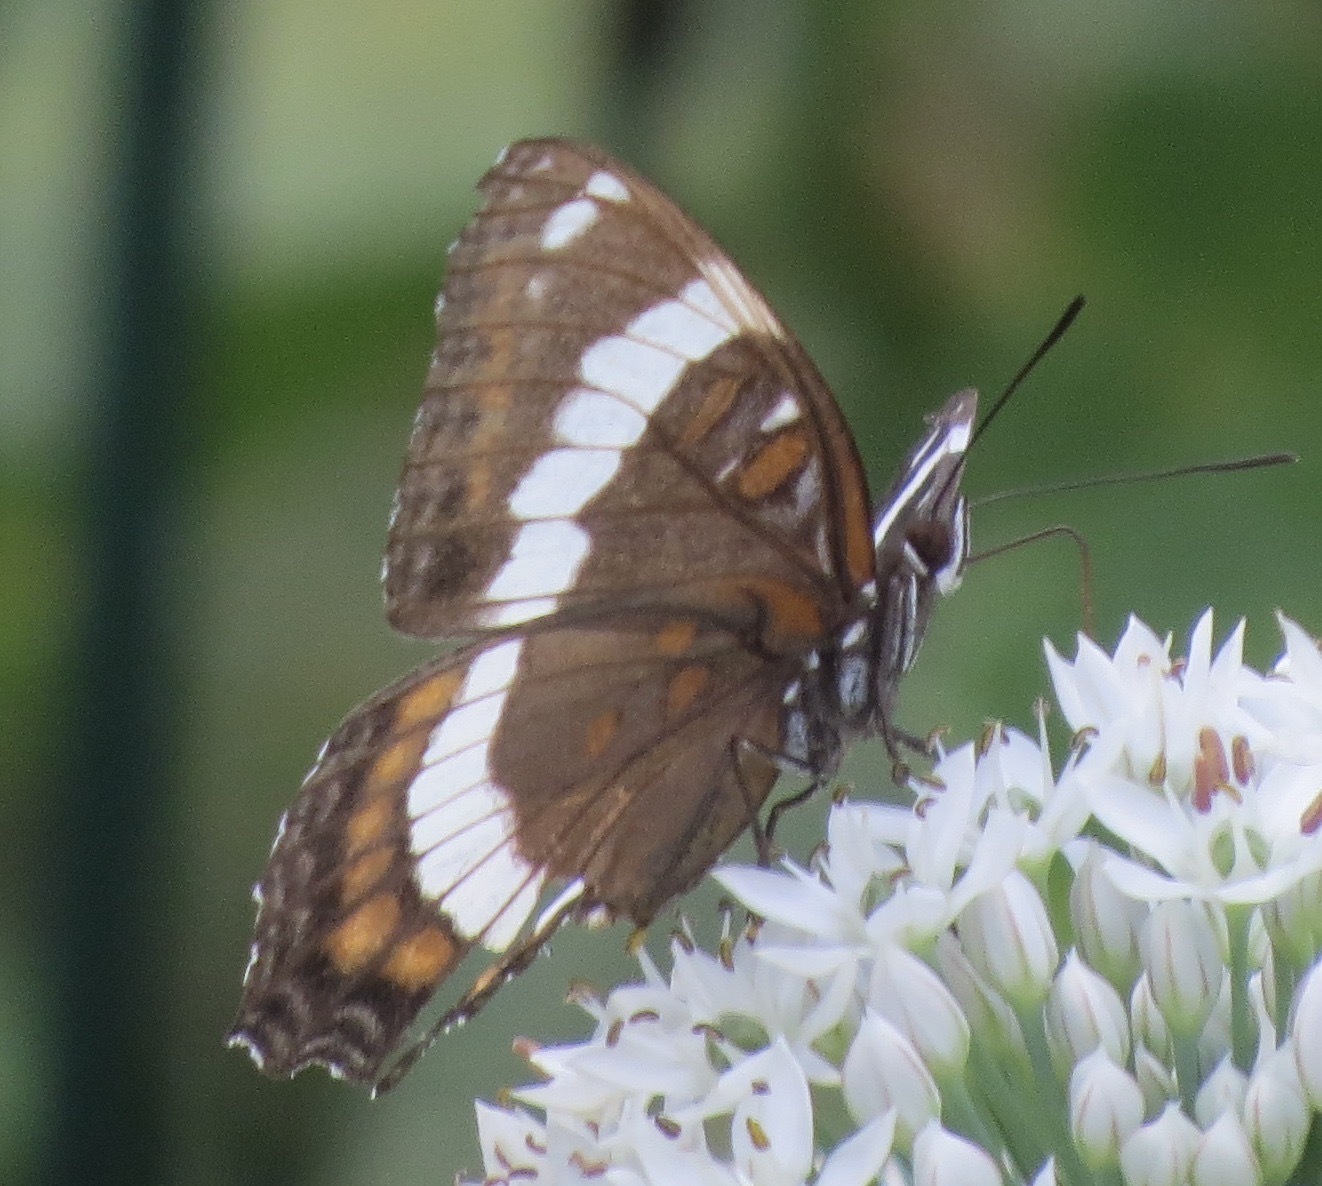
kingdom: Animalia
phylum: Arthropoda
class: Insecta
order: Lepidoptera
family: Nymphalidae
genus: Limenitis
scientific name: Limenitis arthemis
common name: Red-spotted admiral
